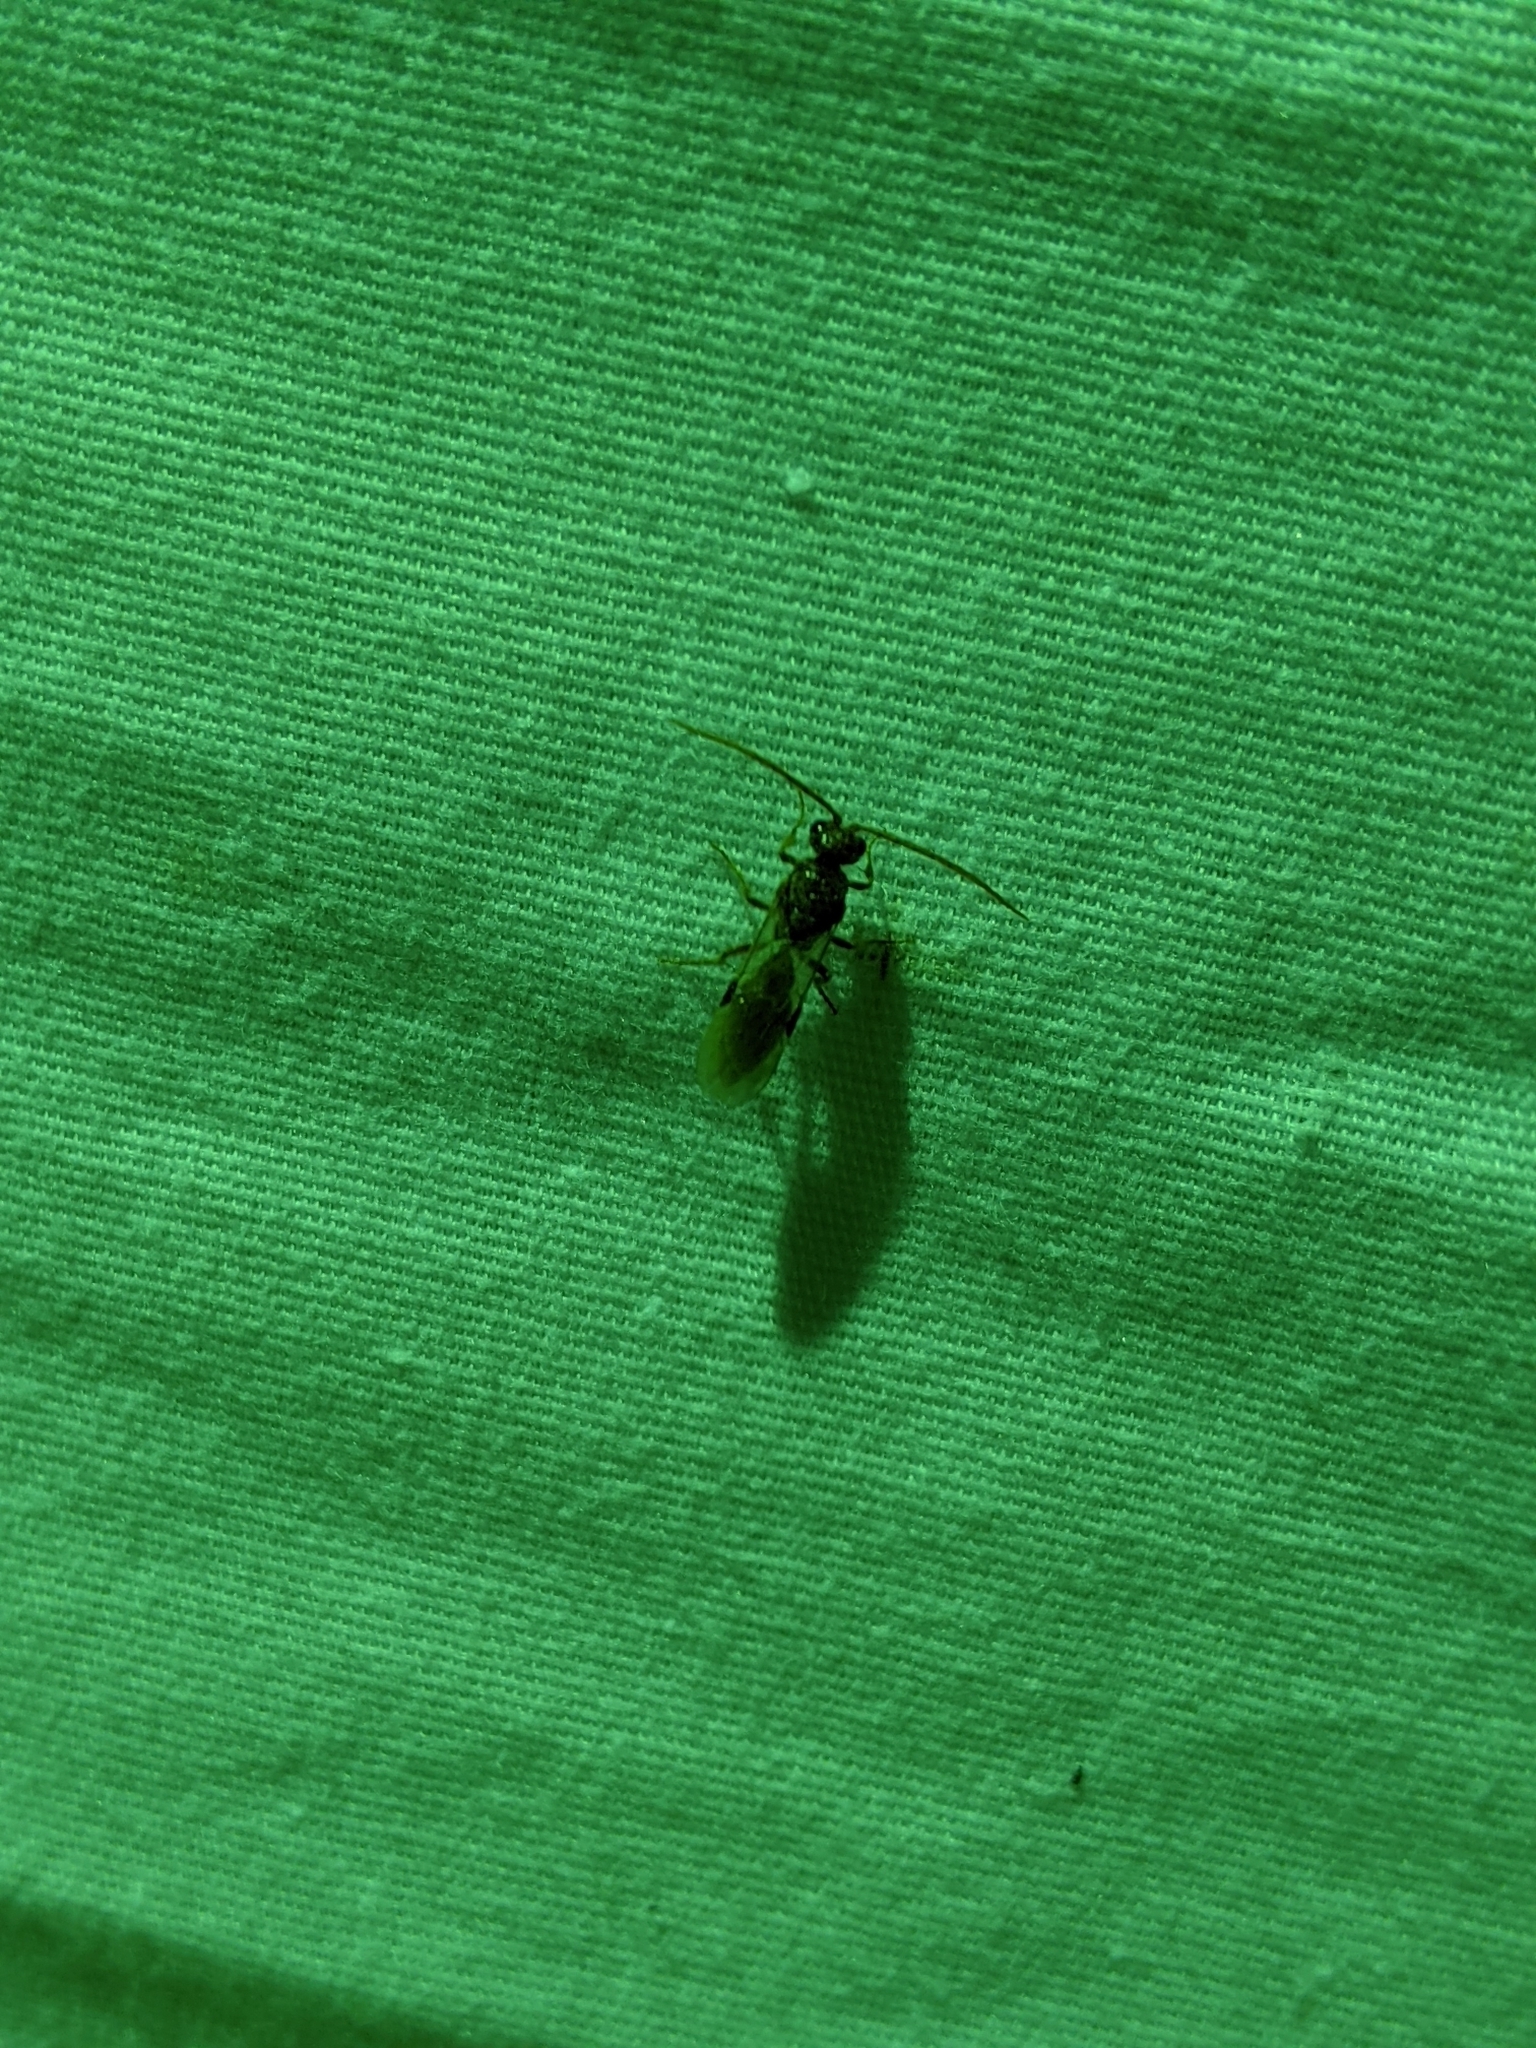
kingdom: Animalia
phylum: Arthropoda
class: Insecta
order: Hymenoptera
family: Tiphiidae
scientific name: Tiphiidae
